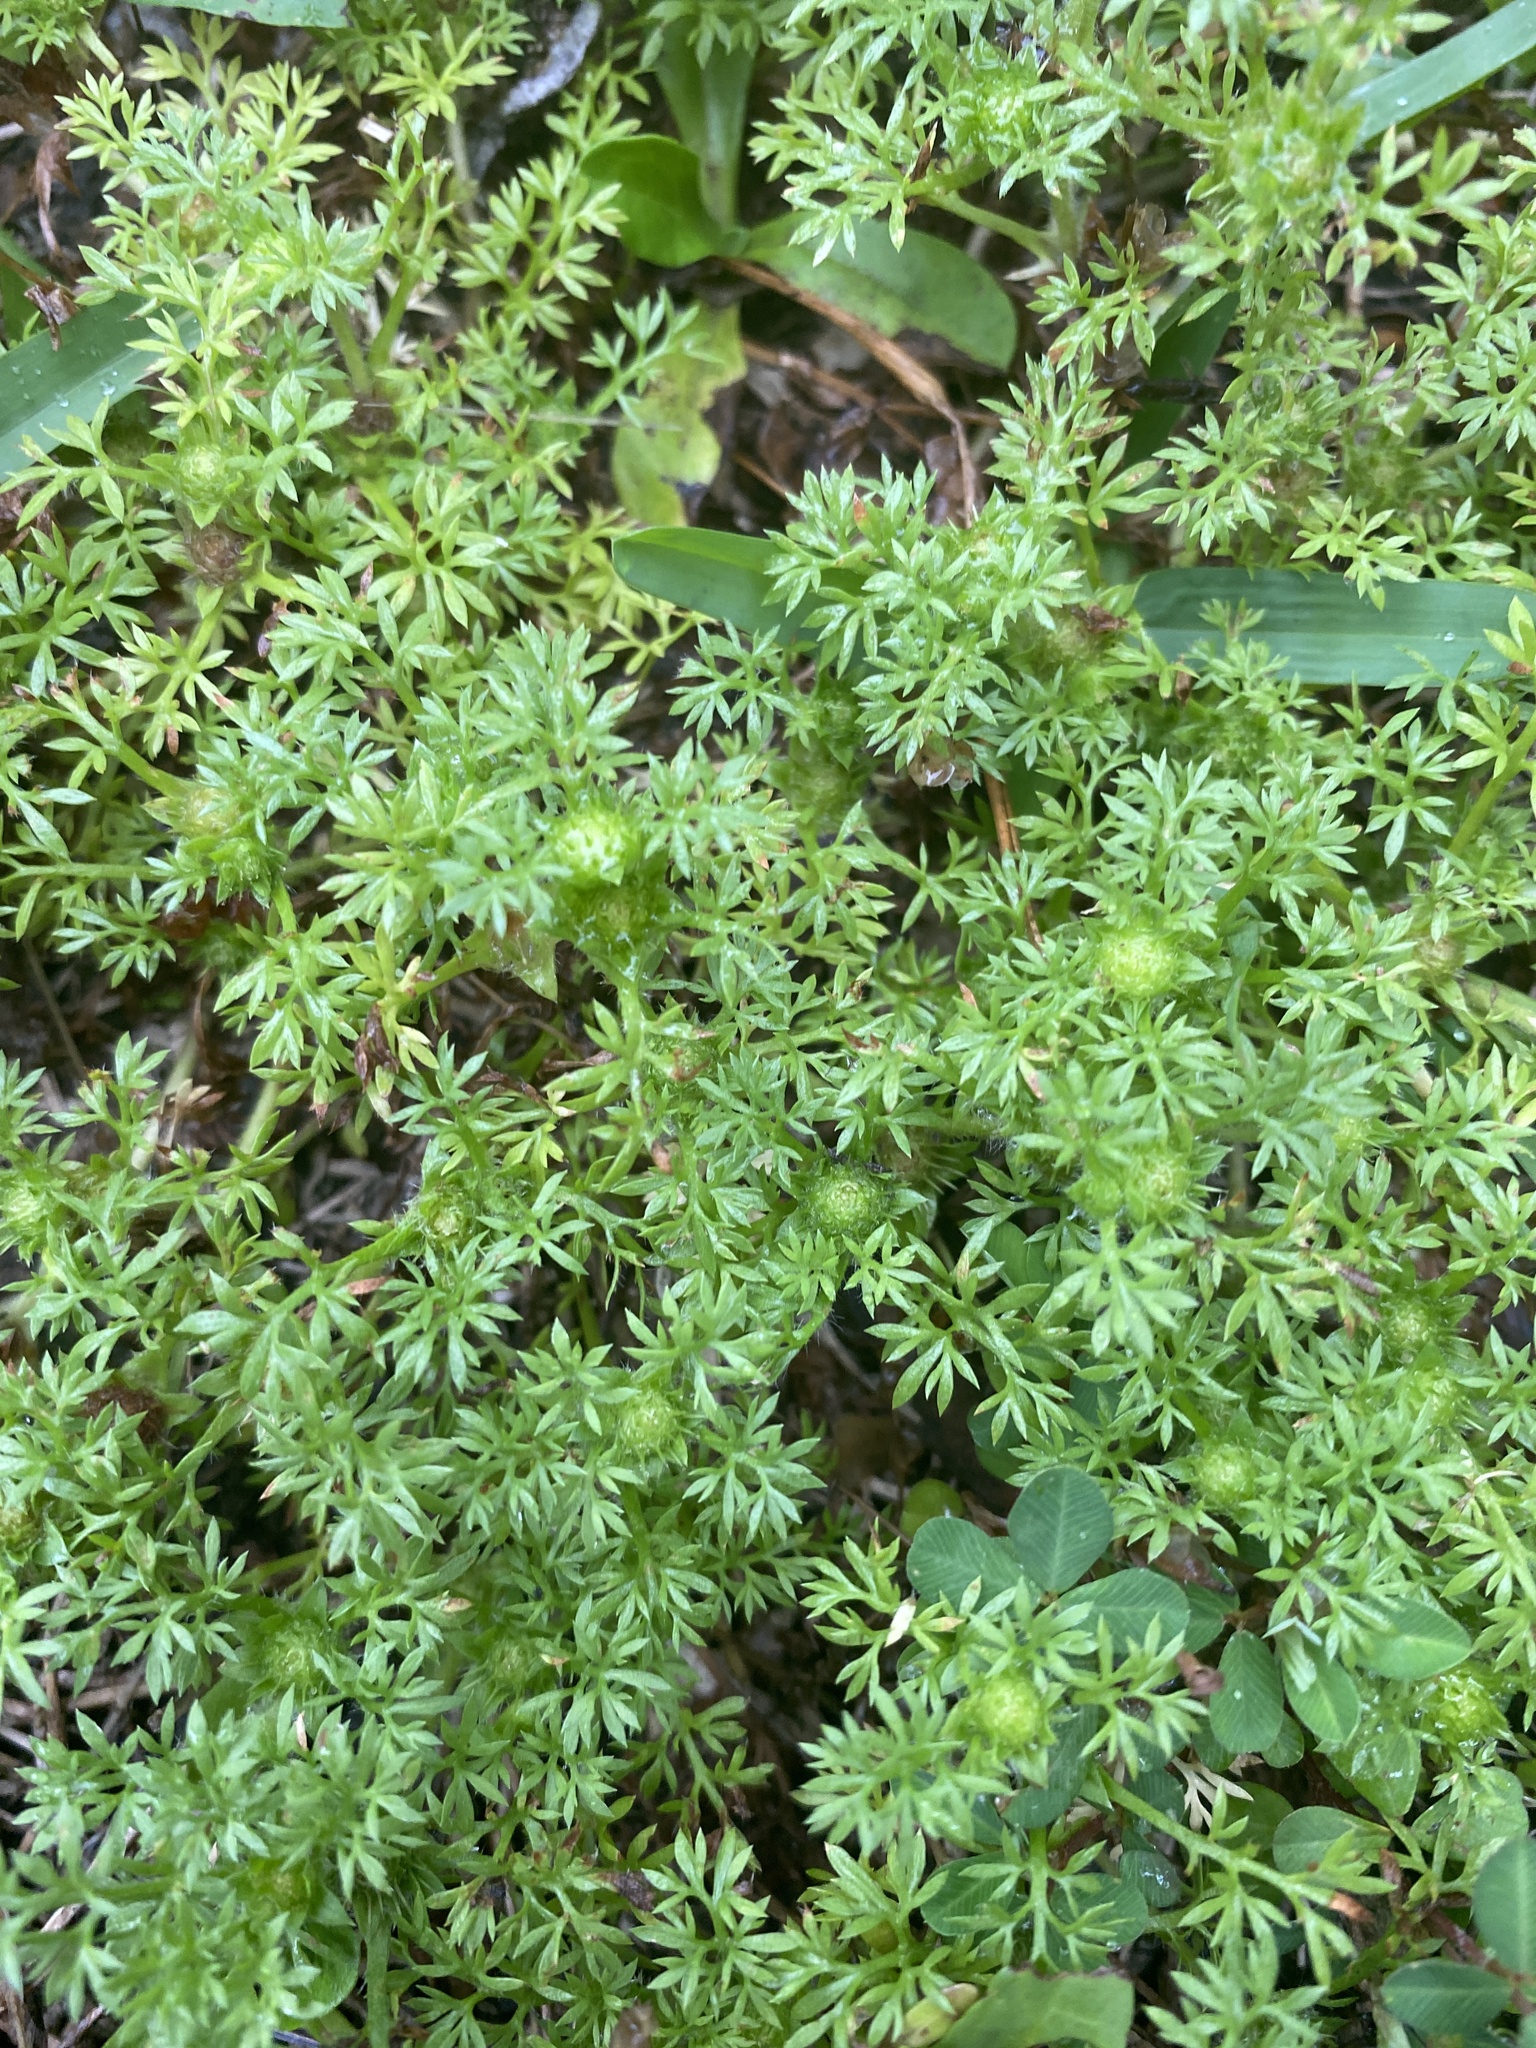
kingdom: Plantae
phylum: Tracheophyta
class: Magnoliopsida
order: Asterales
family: Asteraceae
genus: Soliva
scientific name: Soliva sessilis
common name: Field burrweed
